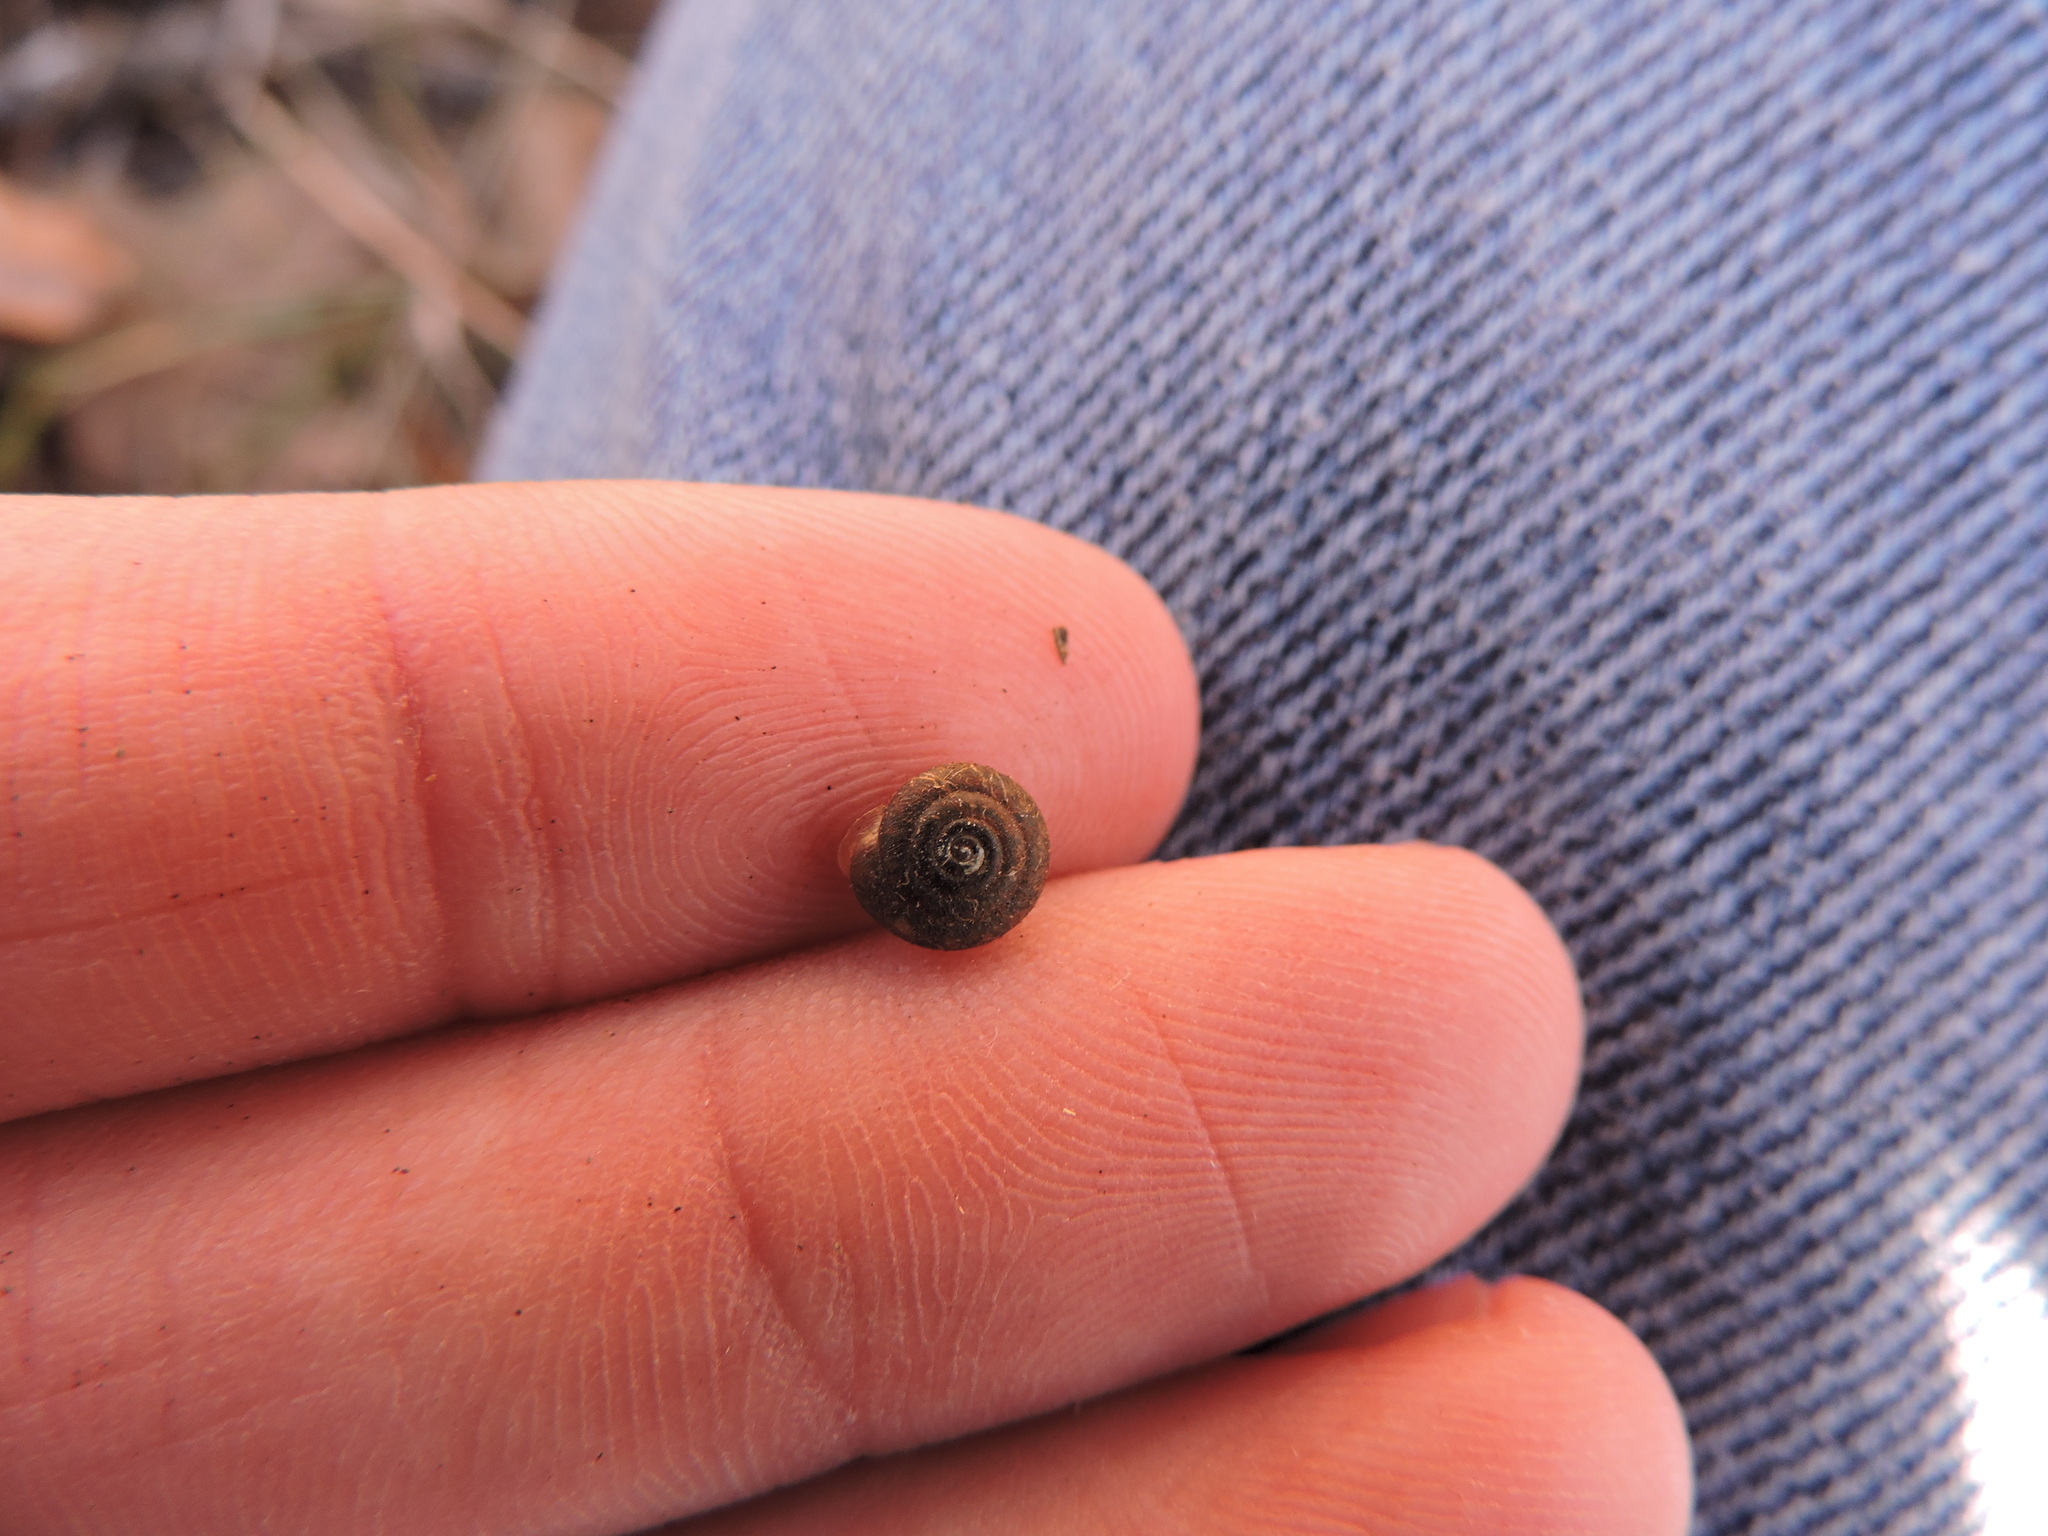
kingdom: Animalia
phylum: Mollusca
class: Gastropoda
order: Stylommatophora
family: Polygyridae
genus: Triodopsis
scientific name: Triodopsis cragini
